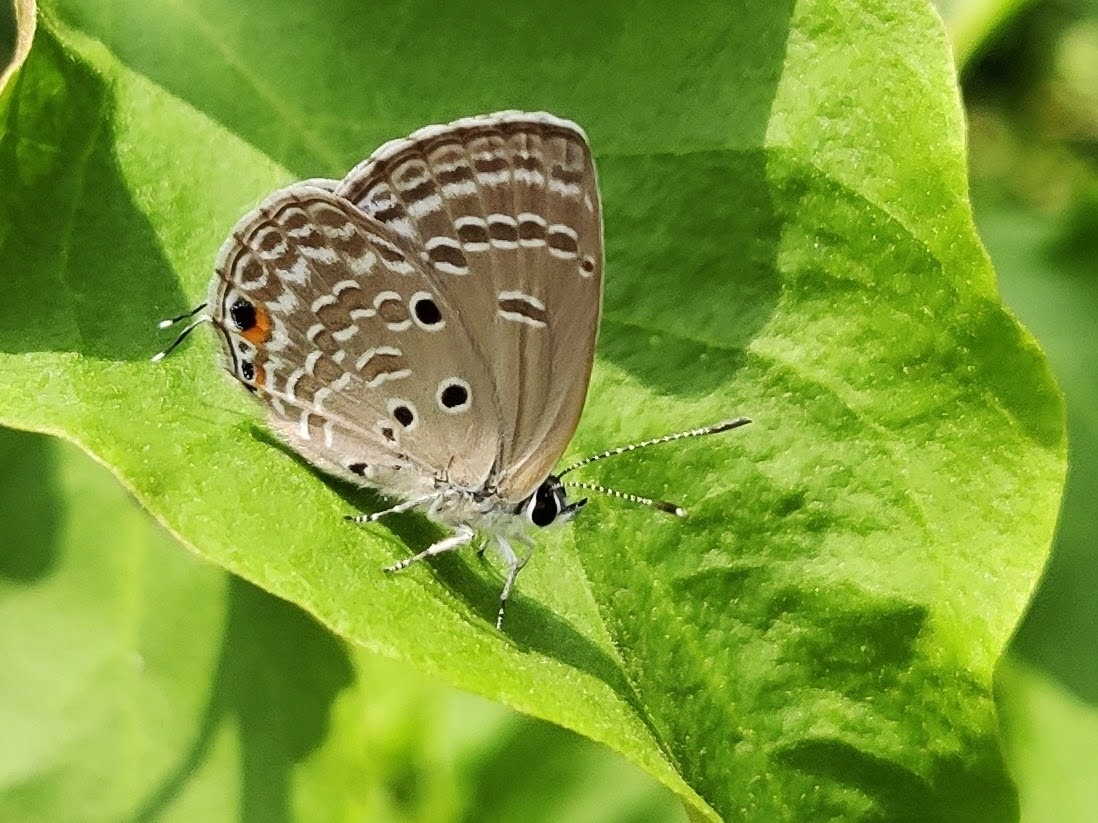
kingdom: Animalia
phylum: Arthropoda
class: Insecta
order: Lepidoptera
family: Lycaenidae
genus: Luthrodes
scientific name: Luthrodes pandava
